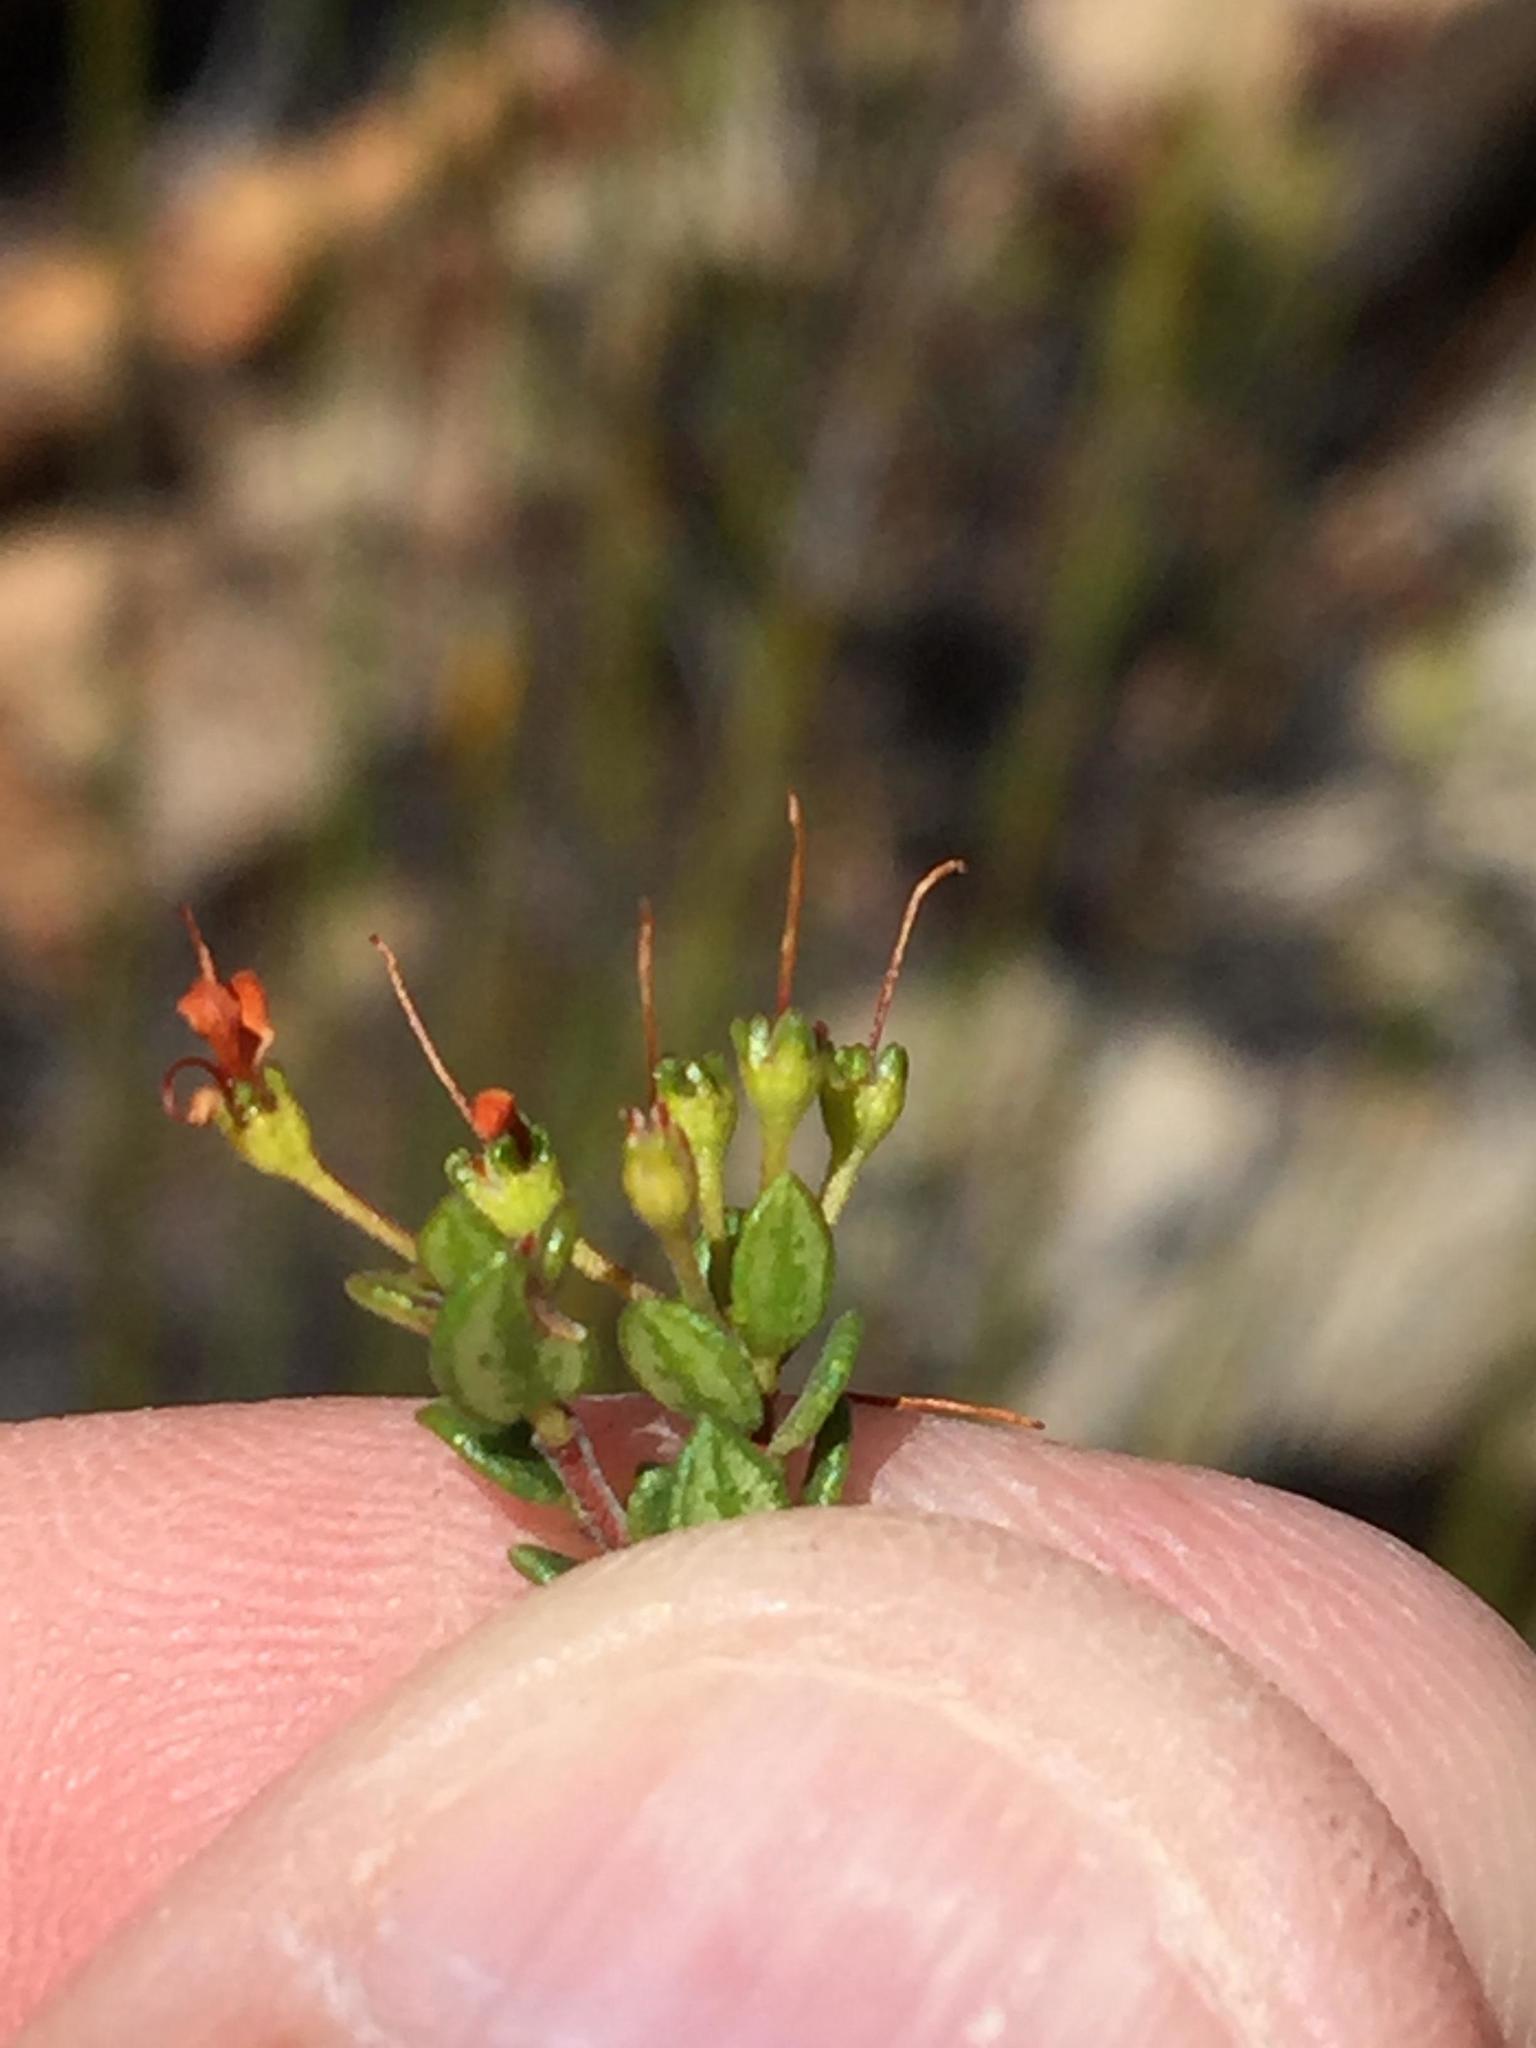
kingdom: Plantae
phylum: Tracheophyta
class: Magnoliopsida
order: Sapindales
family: Rutaceae
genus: Agathosma
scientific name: Agathosma ovalifolia
